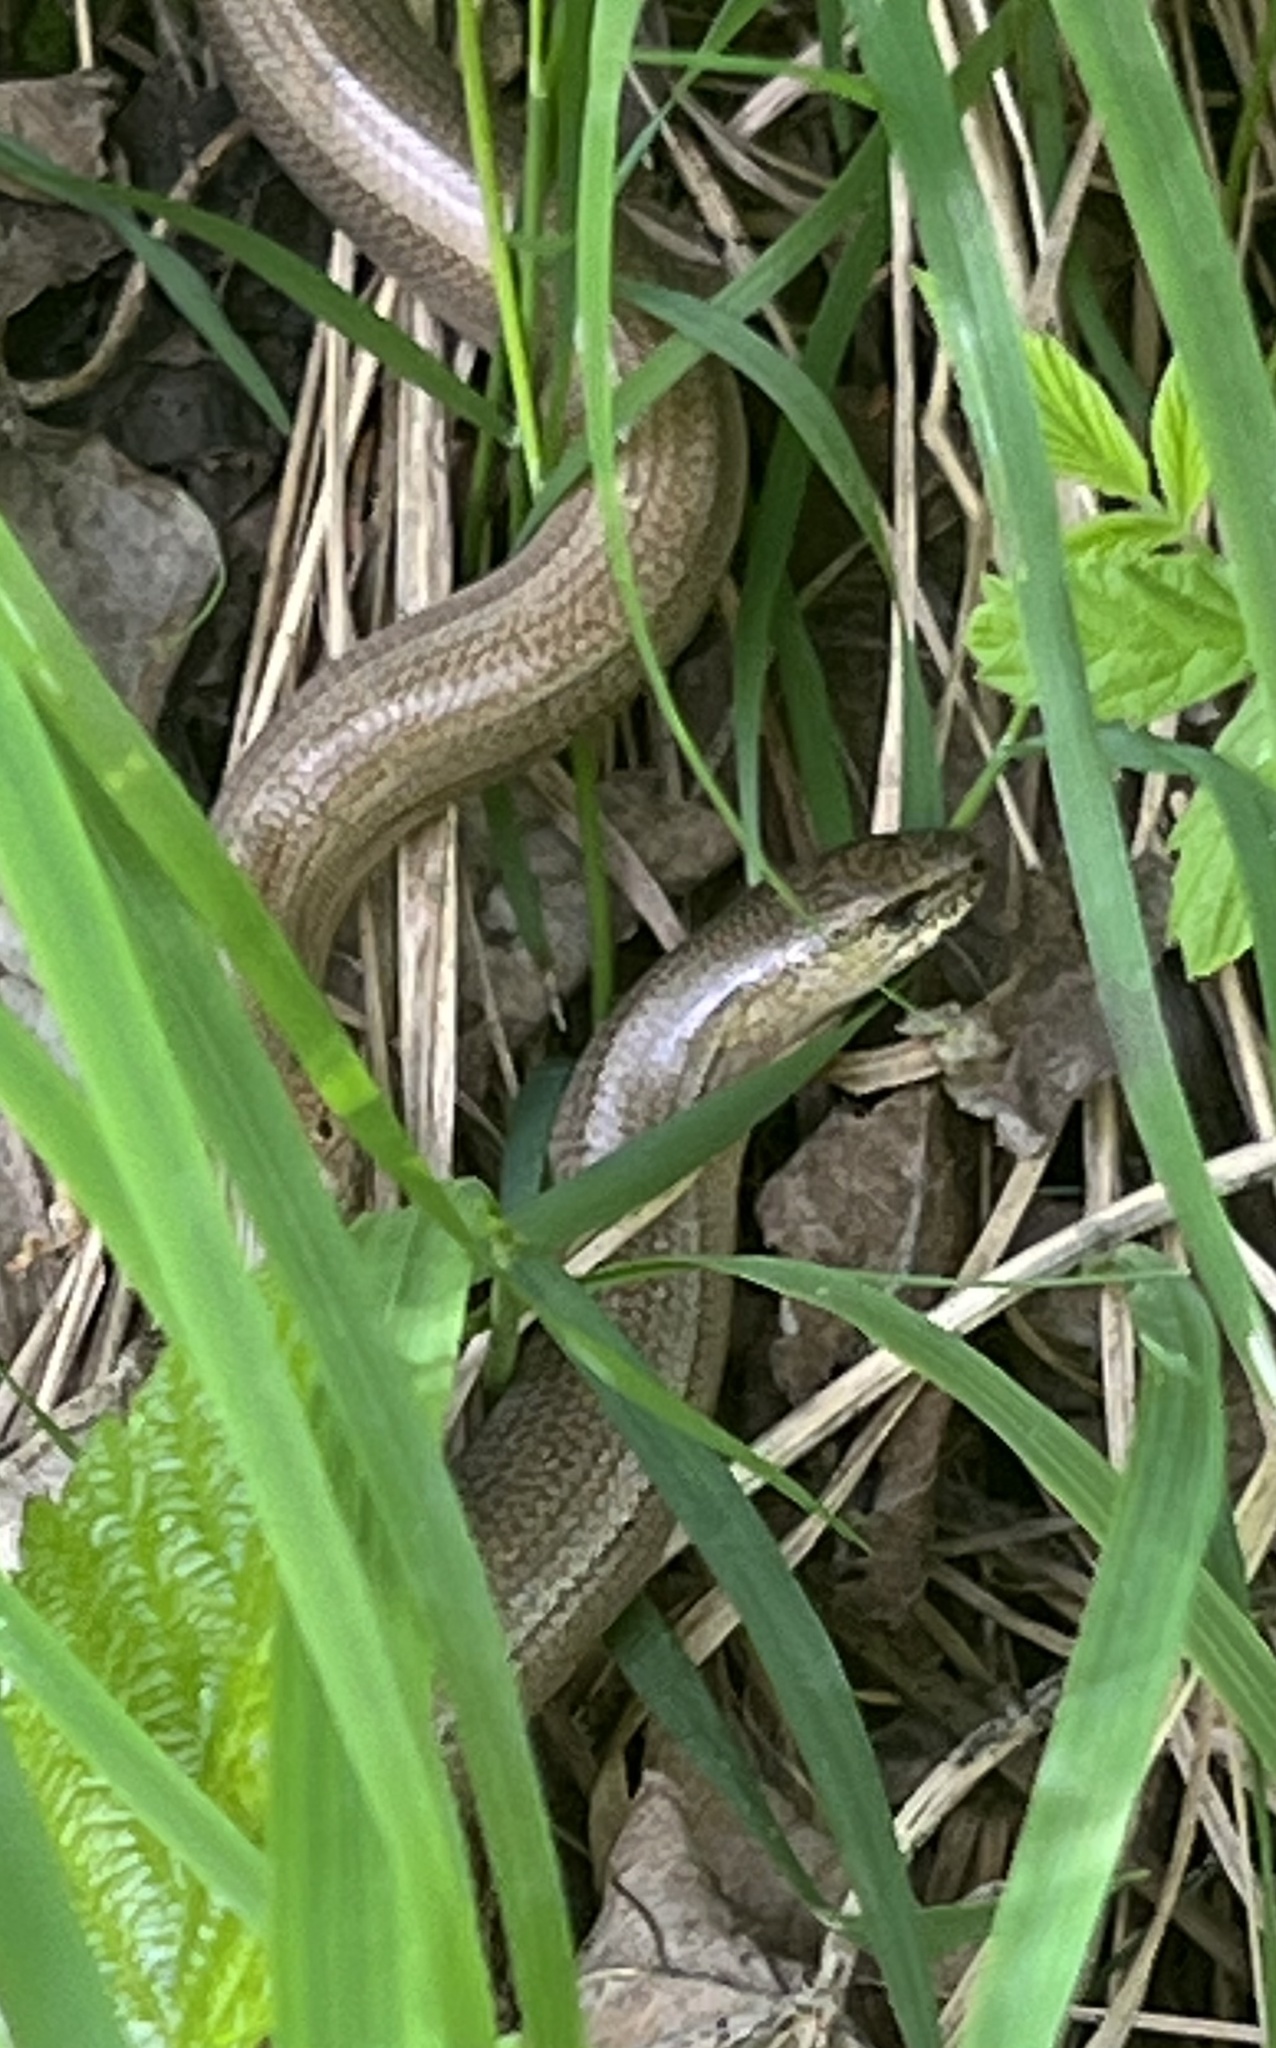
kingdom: Animalia
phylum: Chordata
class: Squamata
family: Anguidae
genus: Anguis
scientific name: Anguis fragilis
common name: Slow worm
